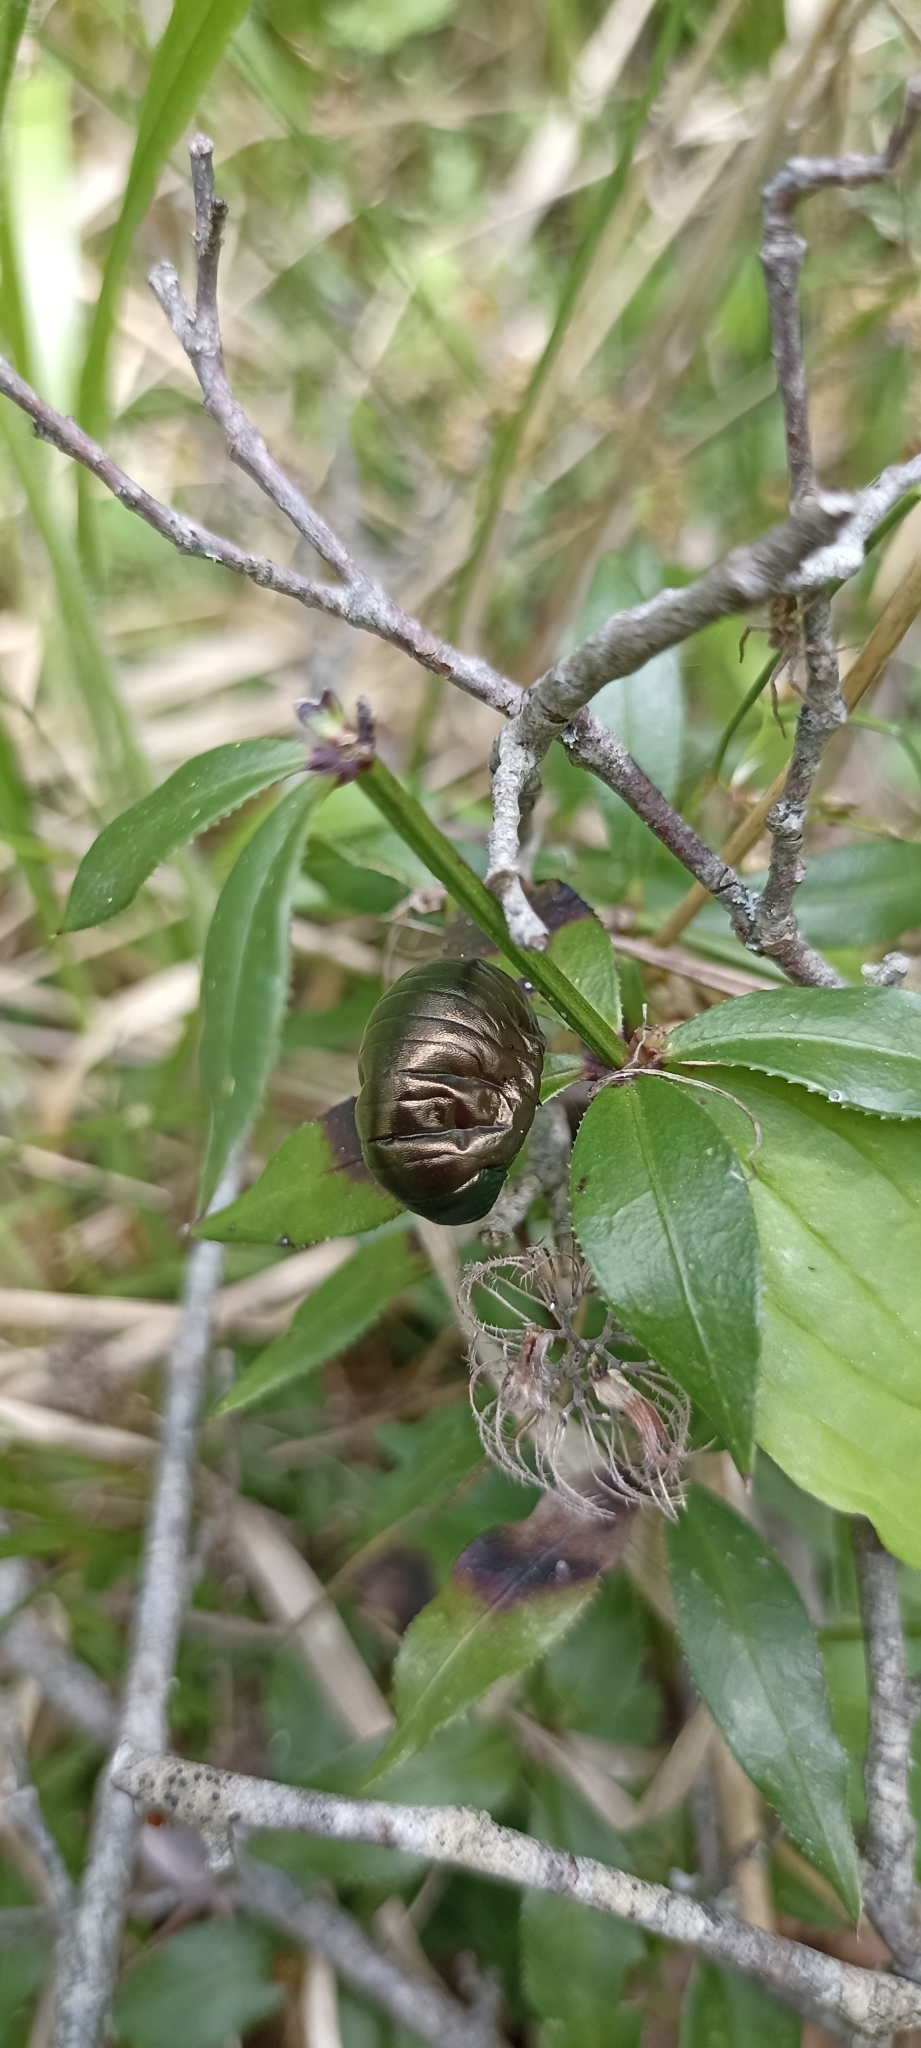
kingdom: Animalia
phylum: Arthropoda
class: Insecta
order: Coleoptera
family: Chrysomelidae
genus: Timarcha
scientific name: Timarcha tenebricosa
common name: Bloody-nosed beetle
